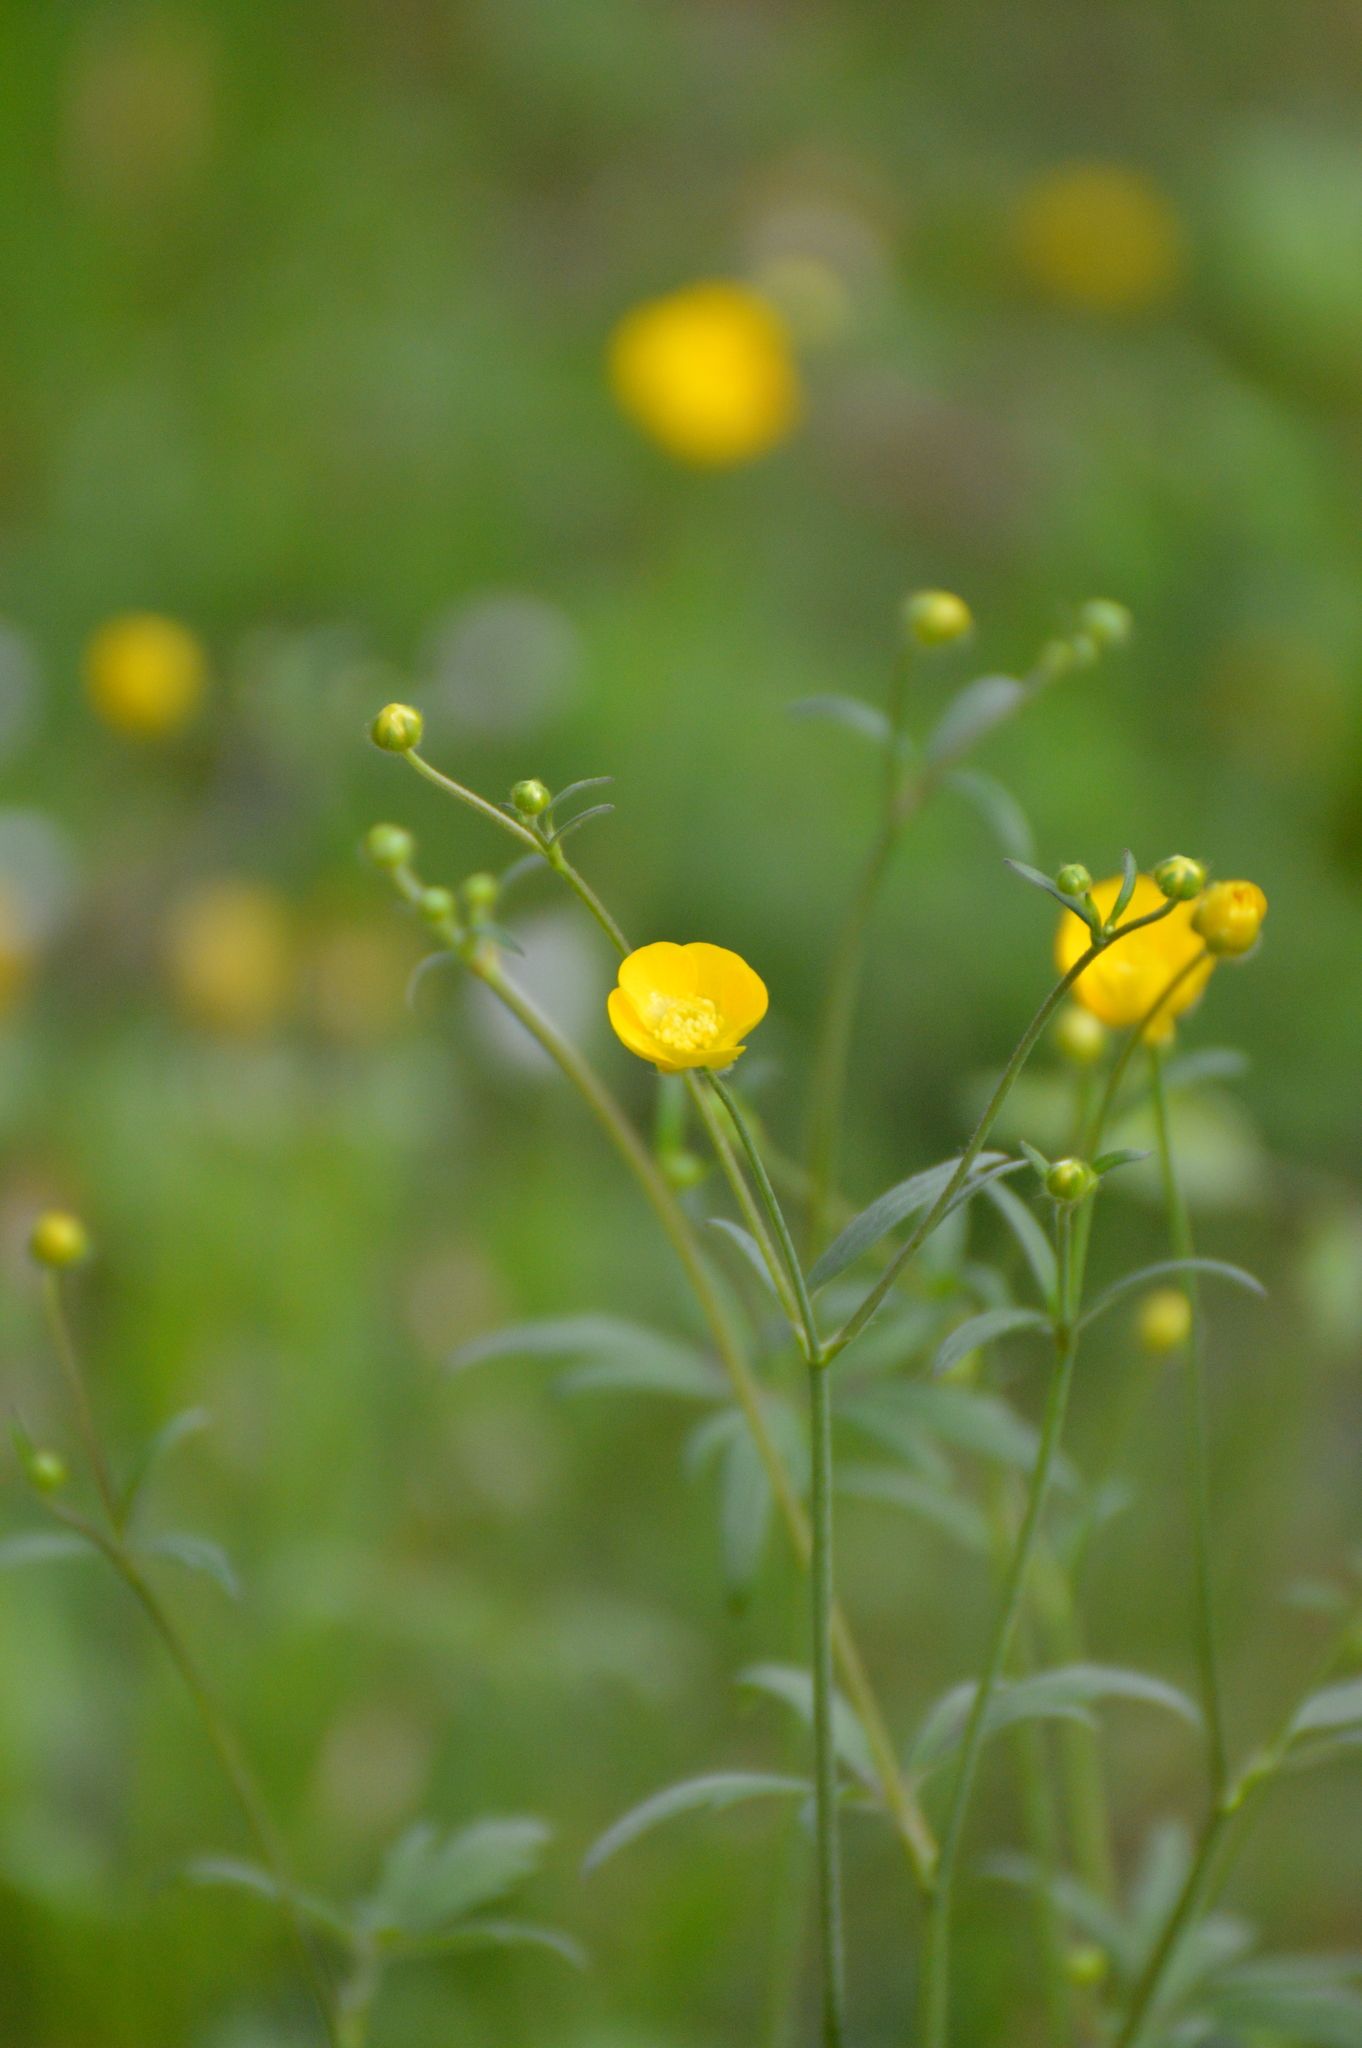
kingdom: Plantae
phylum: Tracheophyta
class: Magnoliopsida
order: Ranunculales
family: Ranunculaceae
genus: Ranunculus
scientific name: Ranunculus acris
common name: Meadow buttercup
